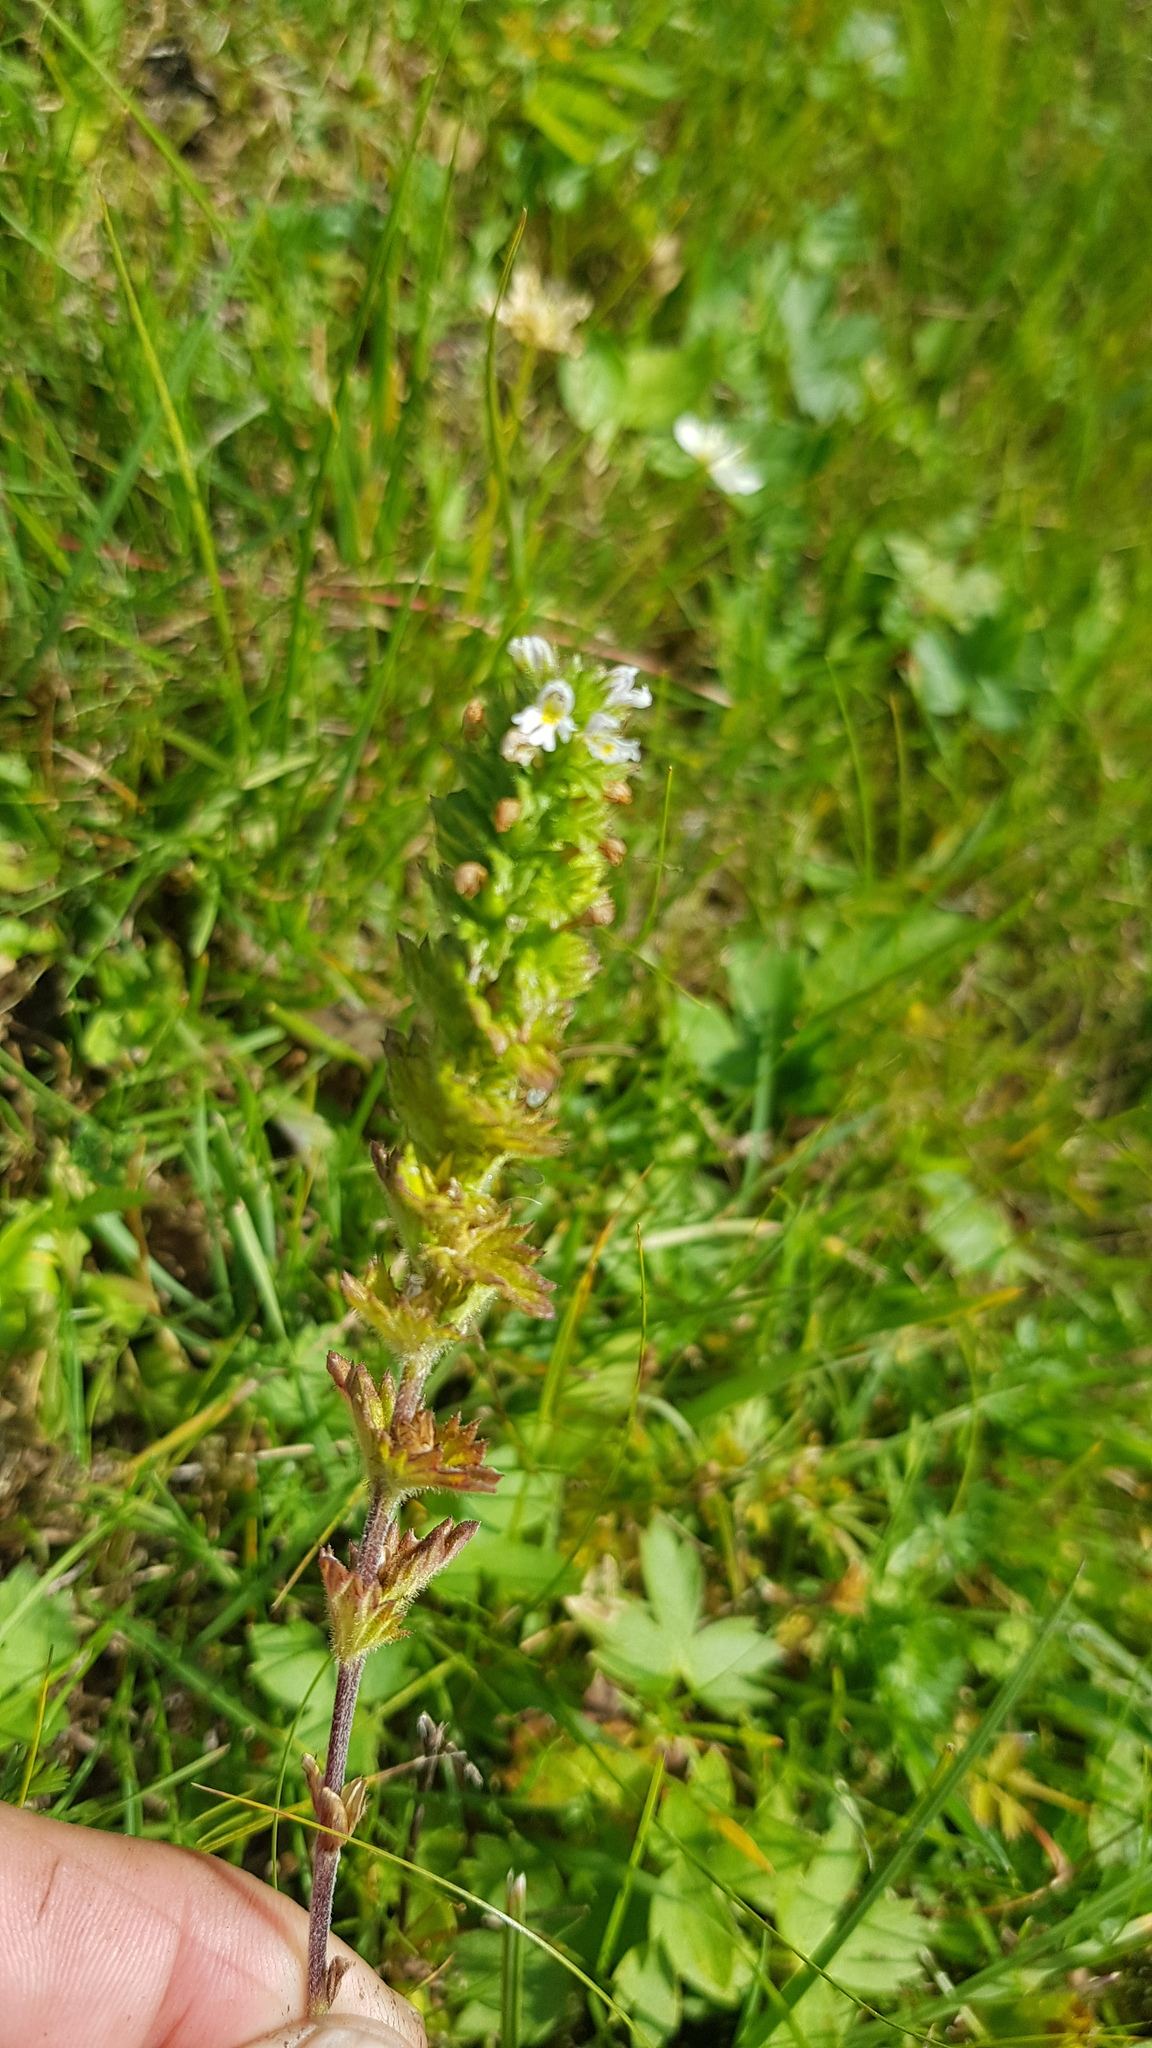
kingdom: Plantae
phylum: Tracheophyta
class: Magnoliopsida
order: Lamiales
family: Orobanchaceae
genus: Euphrasia
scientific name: Euphrasia pectinata
